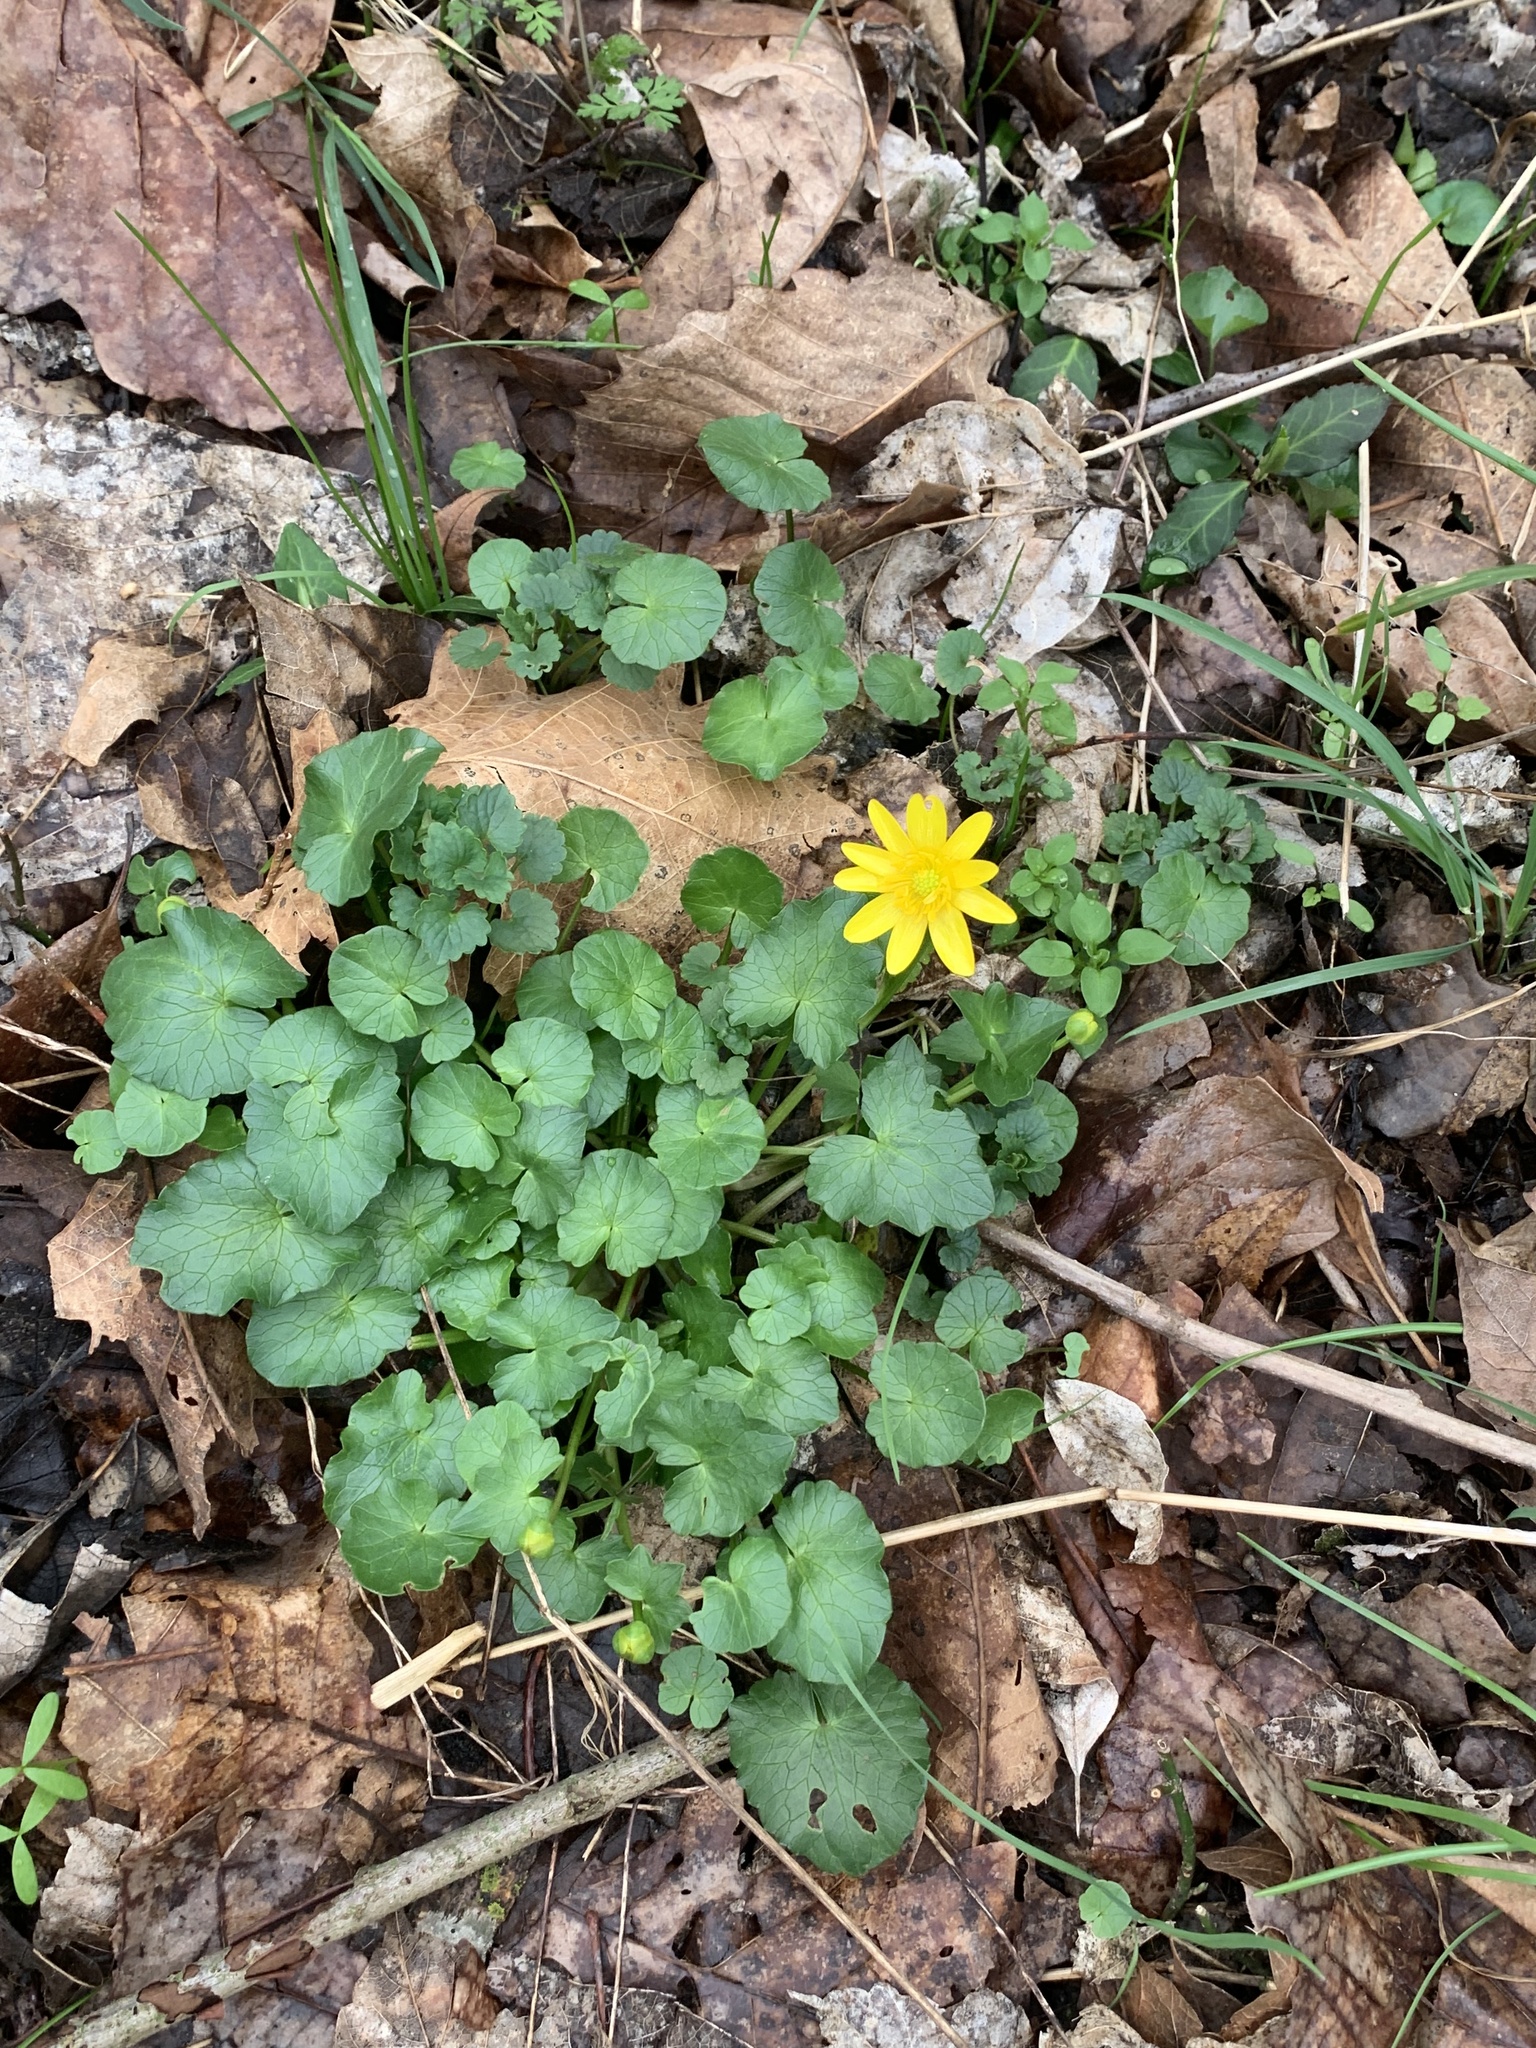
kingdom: Plantae
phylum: Tracheophyta
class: Magnoliopsida
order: Ranunculales
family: Ranunculaceae
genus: Ficaria
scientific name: Ficaria verna
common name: Lesser celandine
